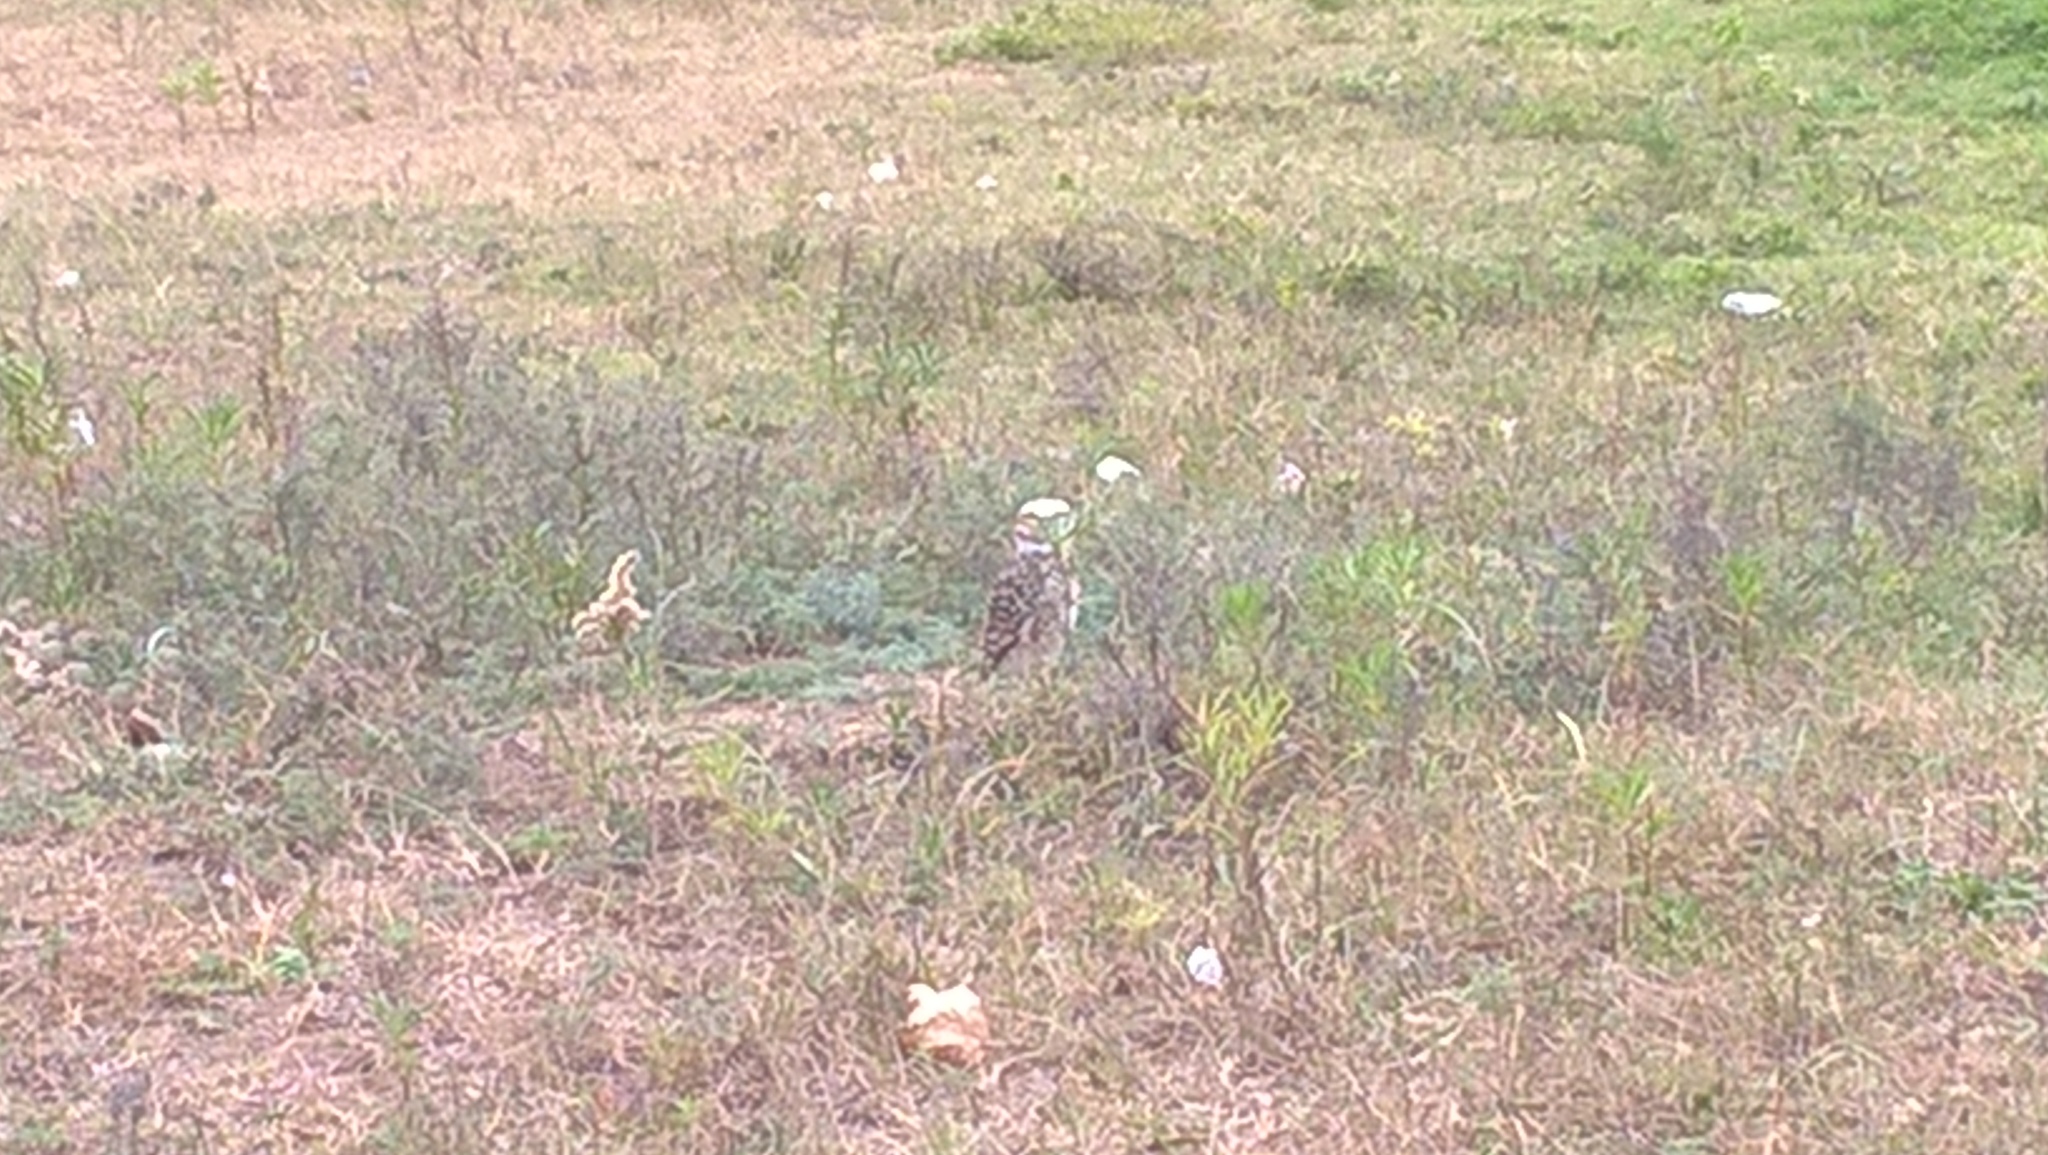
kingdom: Animalia
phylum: Chordata
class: Aves
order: Strigiformes
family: Strigidae
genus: Athene
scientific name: Athene cunicularia
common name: Burrowing owl
